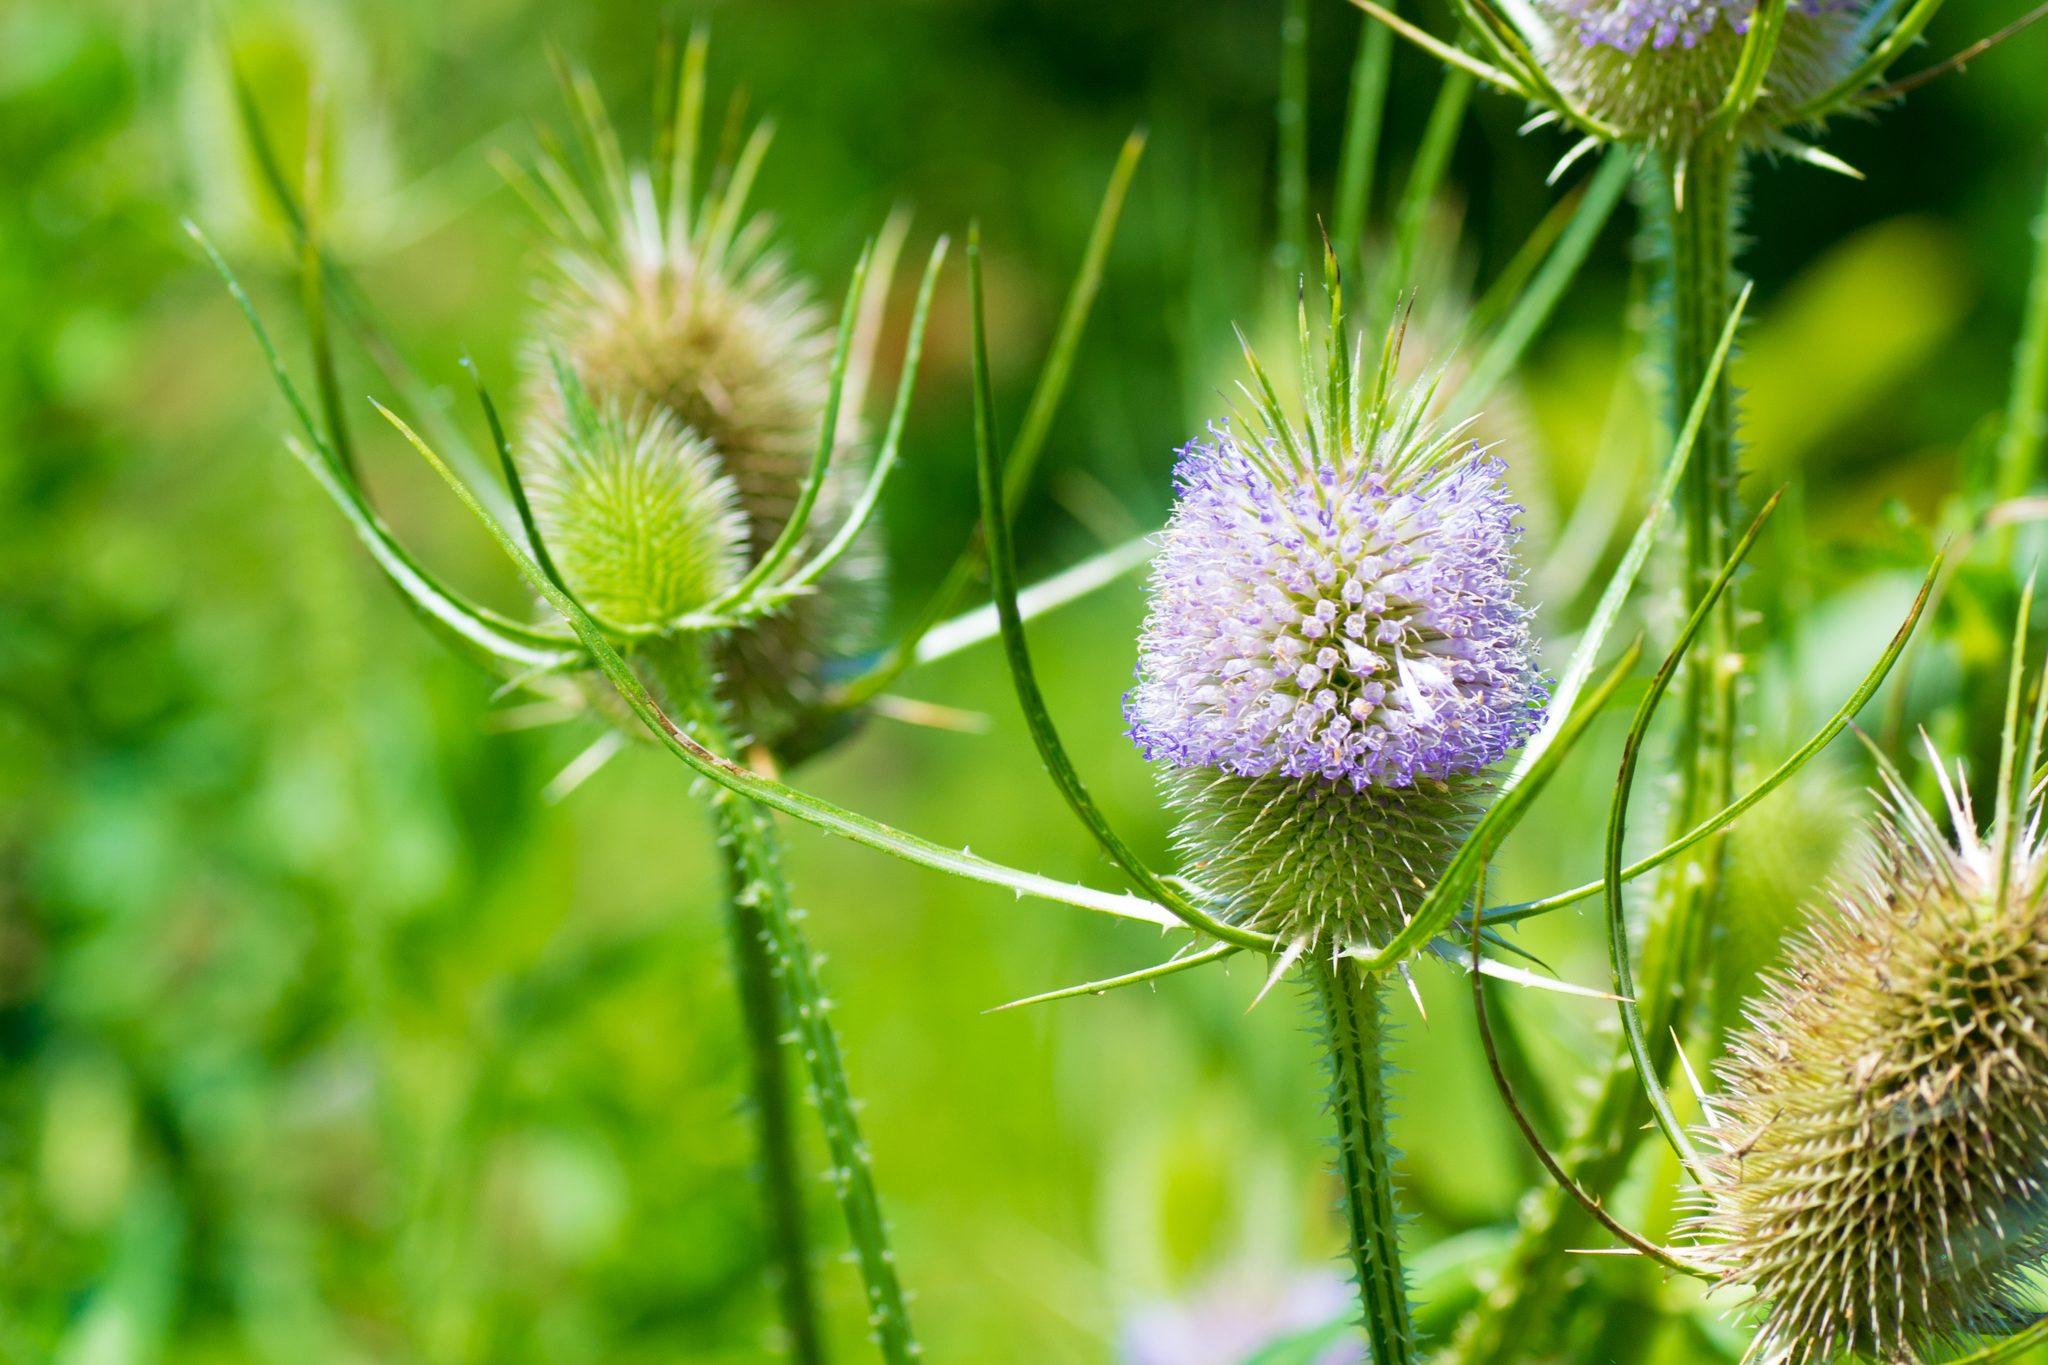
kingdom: Plantae
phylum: Tracheophyta
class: Magnoliopsida
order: Dipsacales
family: Caprifoliaceae
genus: Dipsacus
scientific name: Dipsacus fullonum
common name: Teasel
